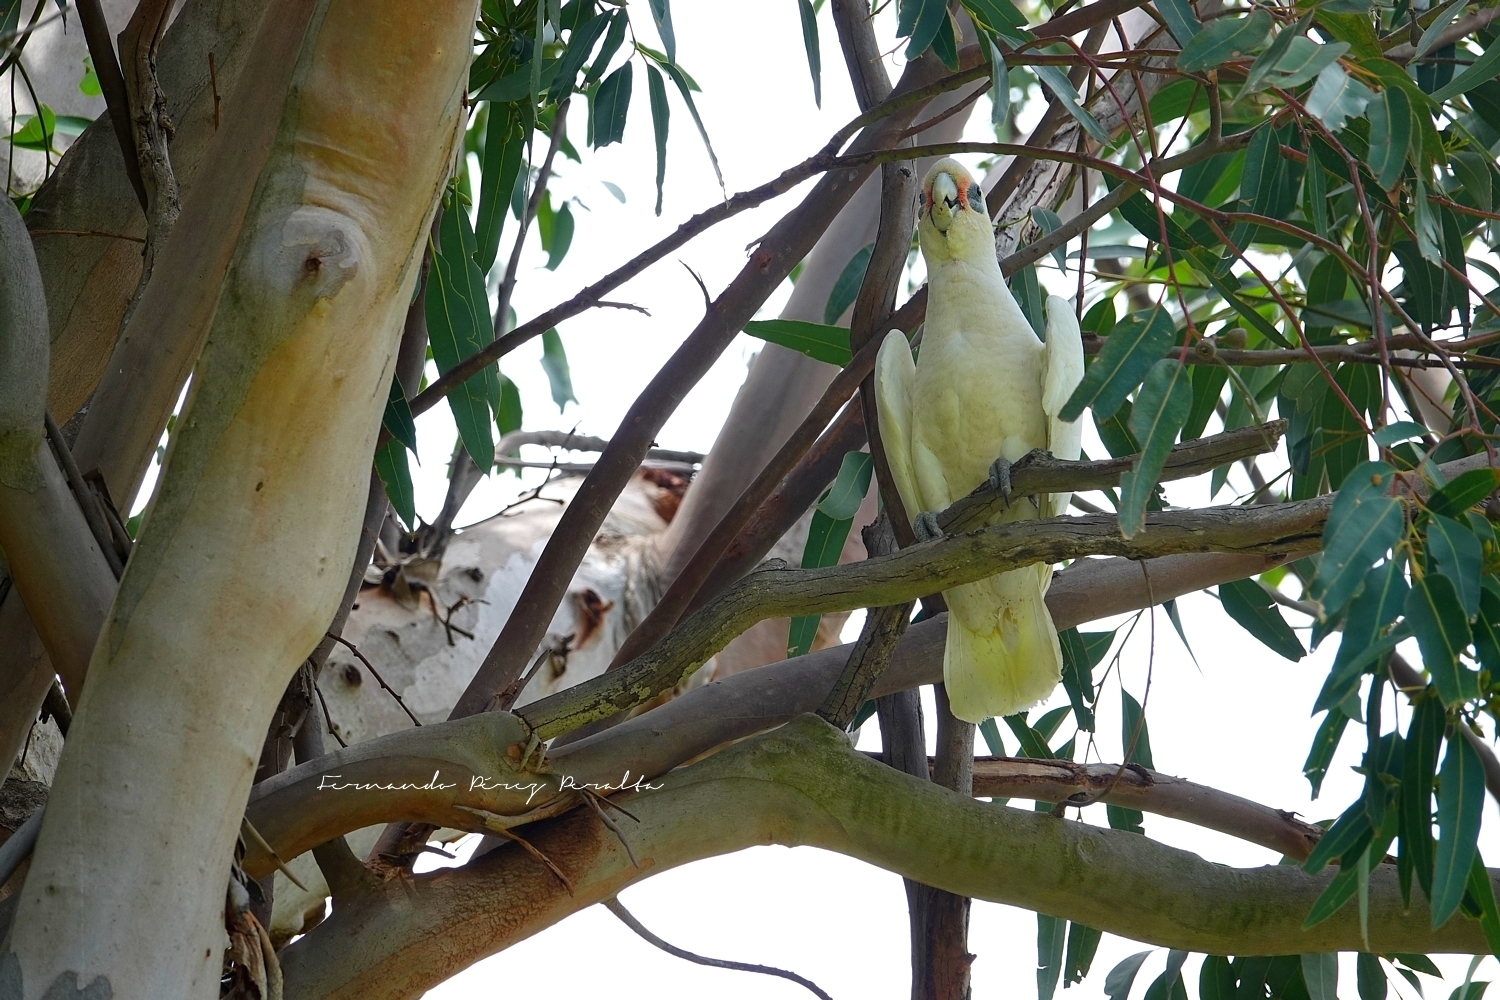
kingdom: Animalia
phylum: Chordata
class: Aves
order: Psittaciformes
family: Psittacidae
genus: Cacatua
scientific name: Cacatua sanguinea
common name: Little corella
